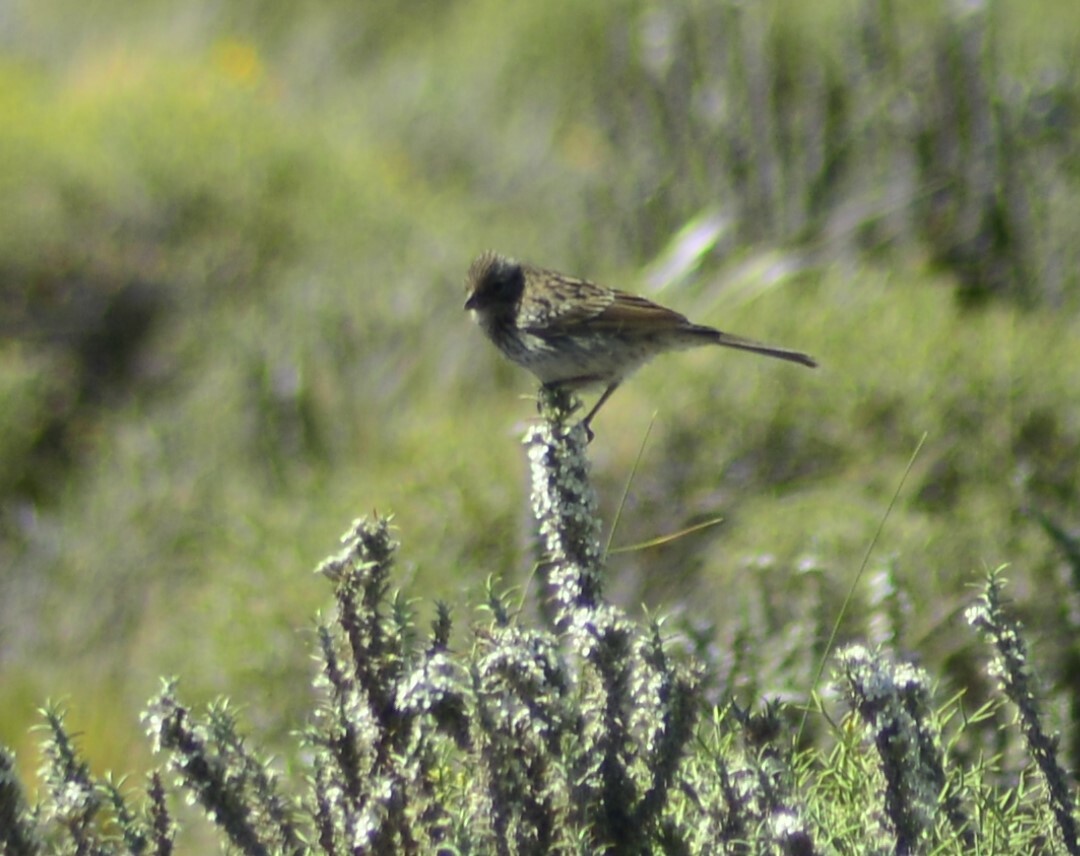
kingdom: Animalia
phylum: Chordata
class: Aves
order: Passeriformes
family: Passerellidae
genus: Zonotrichia
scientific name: Zonotrichia capensis
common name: Rufous-collared sparrow
